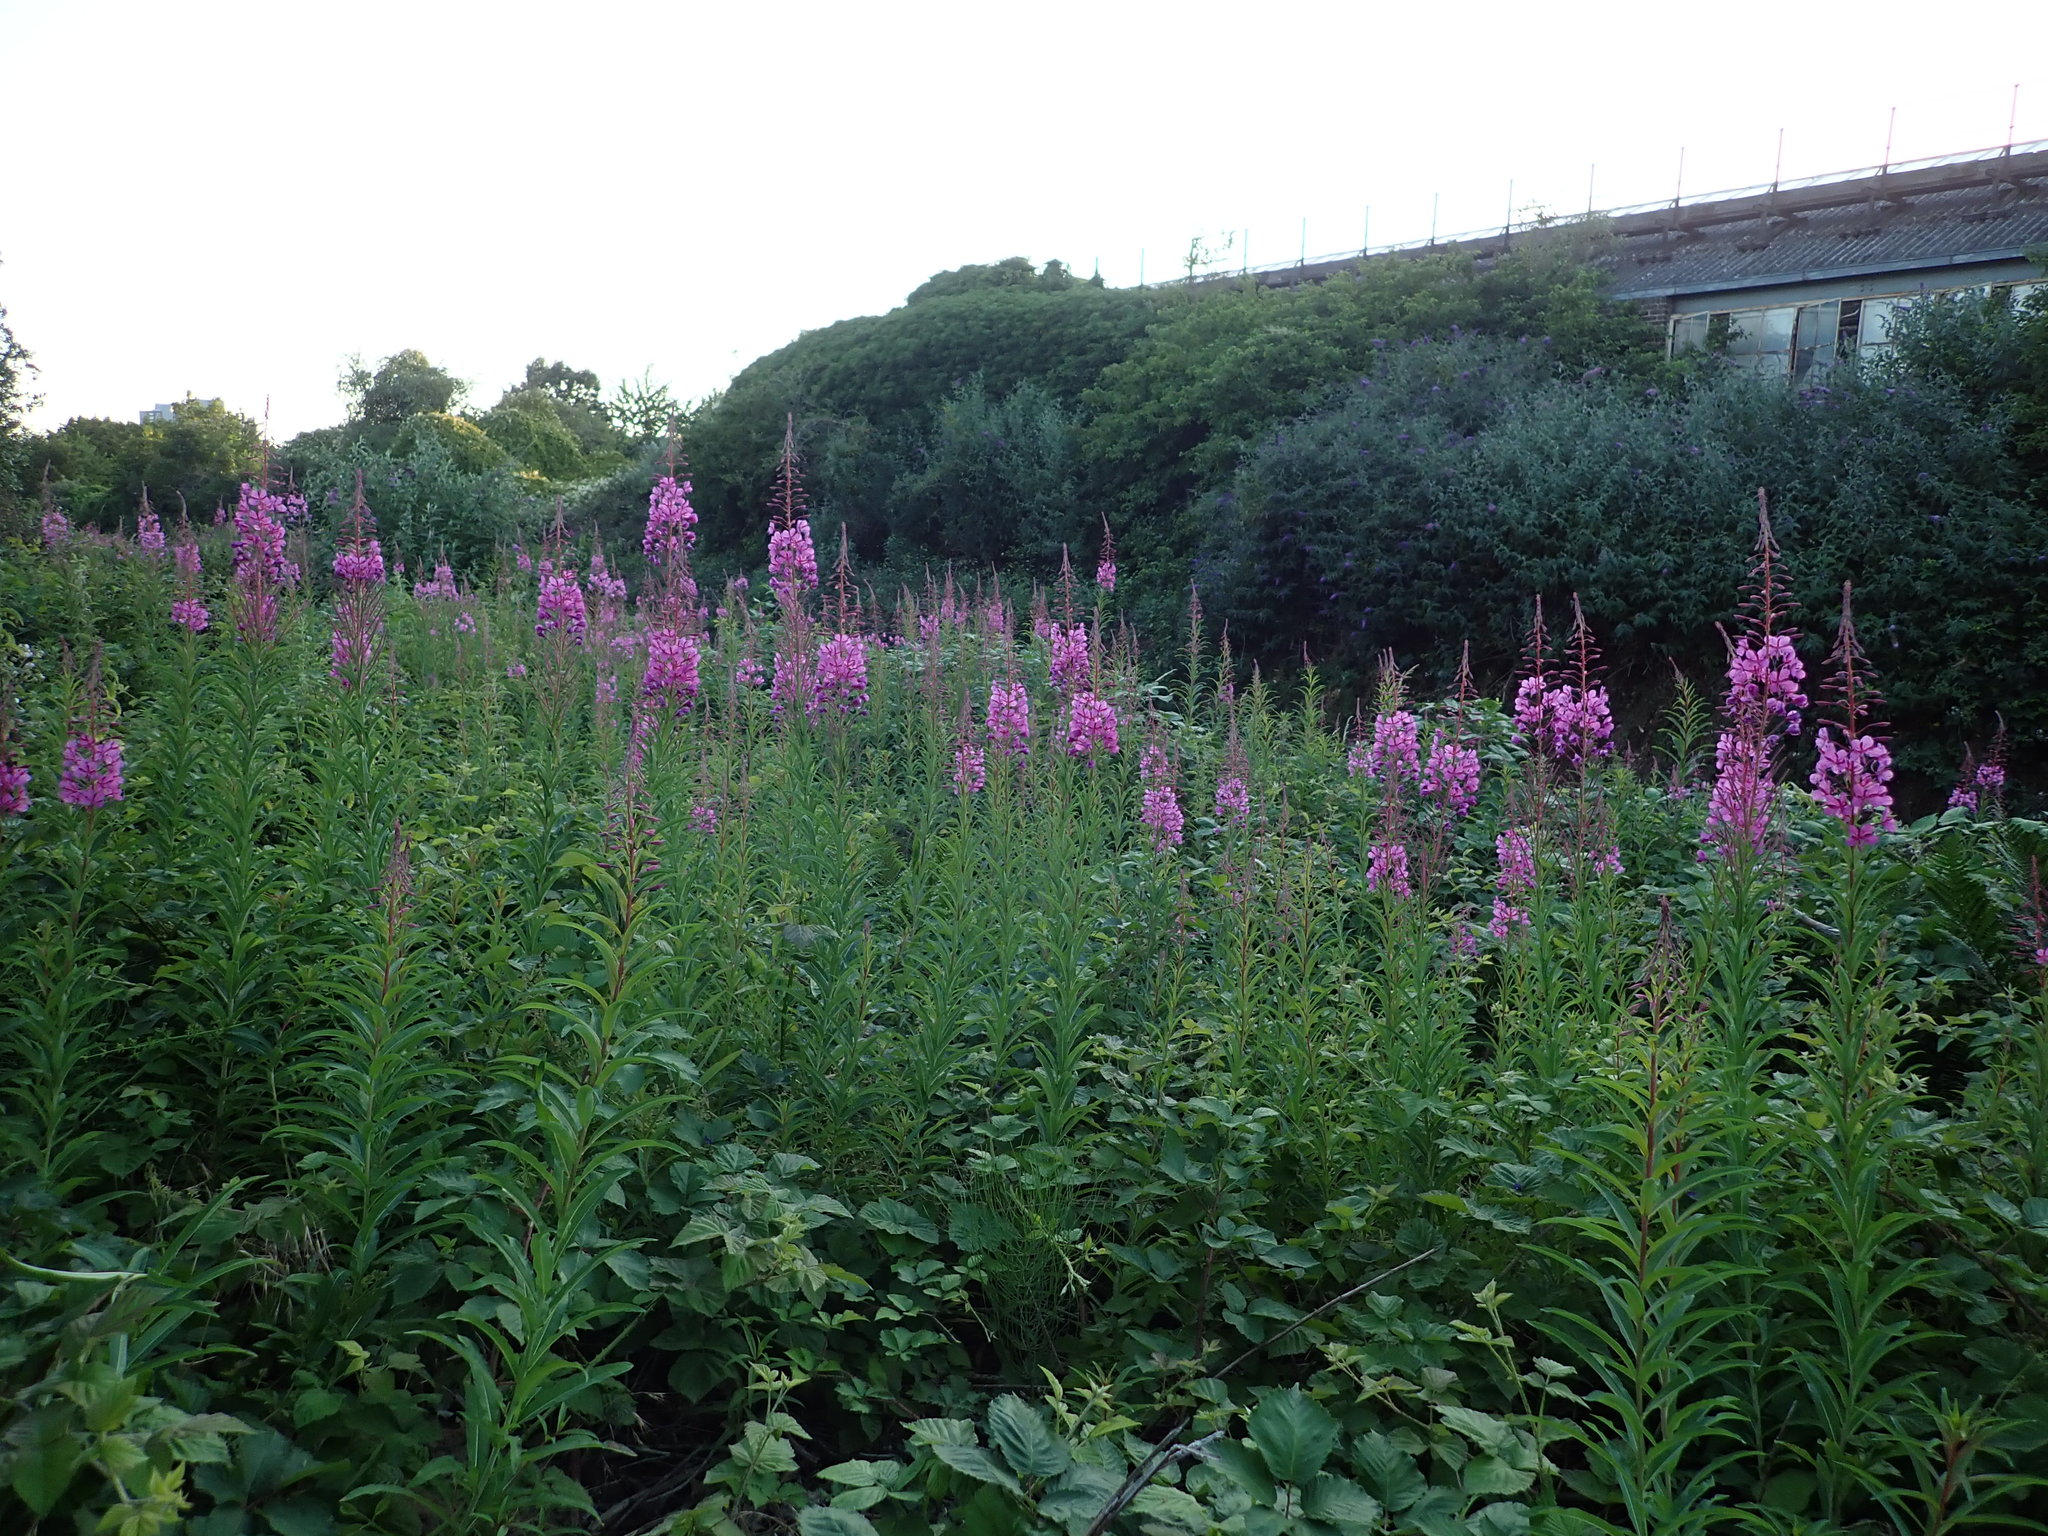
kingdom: Plantae
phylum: Tracheophyta
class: Magnoliopsida
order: Myrtales
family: Onagraceae
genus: Chamaenerion
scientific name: Chamaenerion angustifolium
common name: Fireweed
